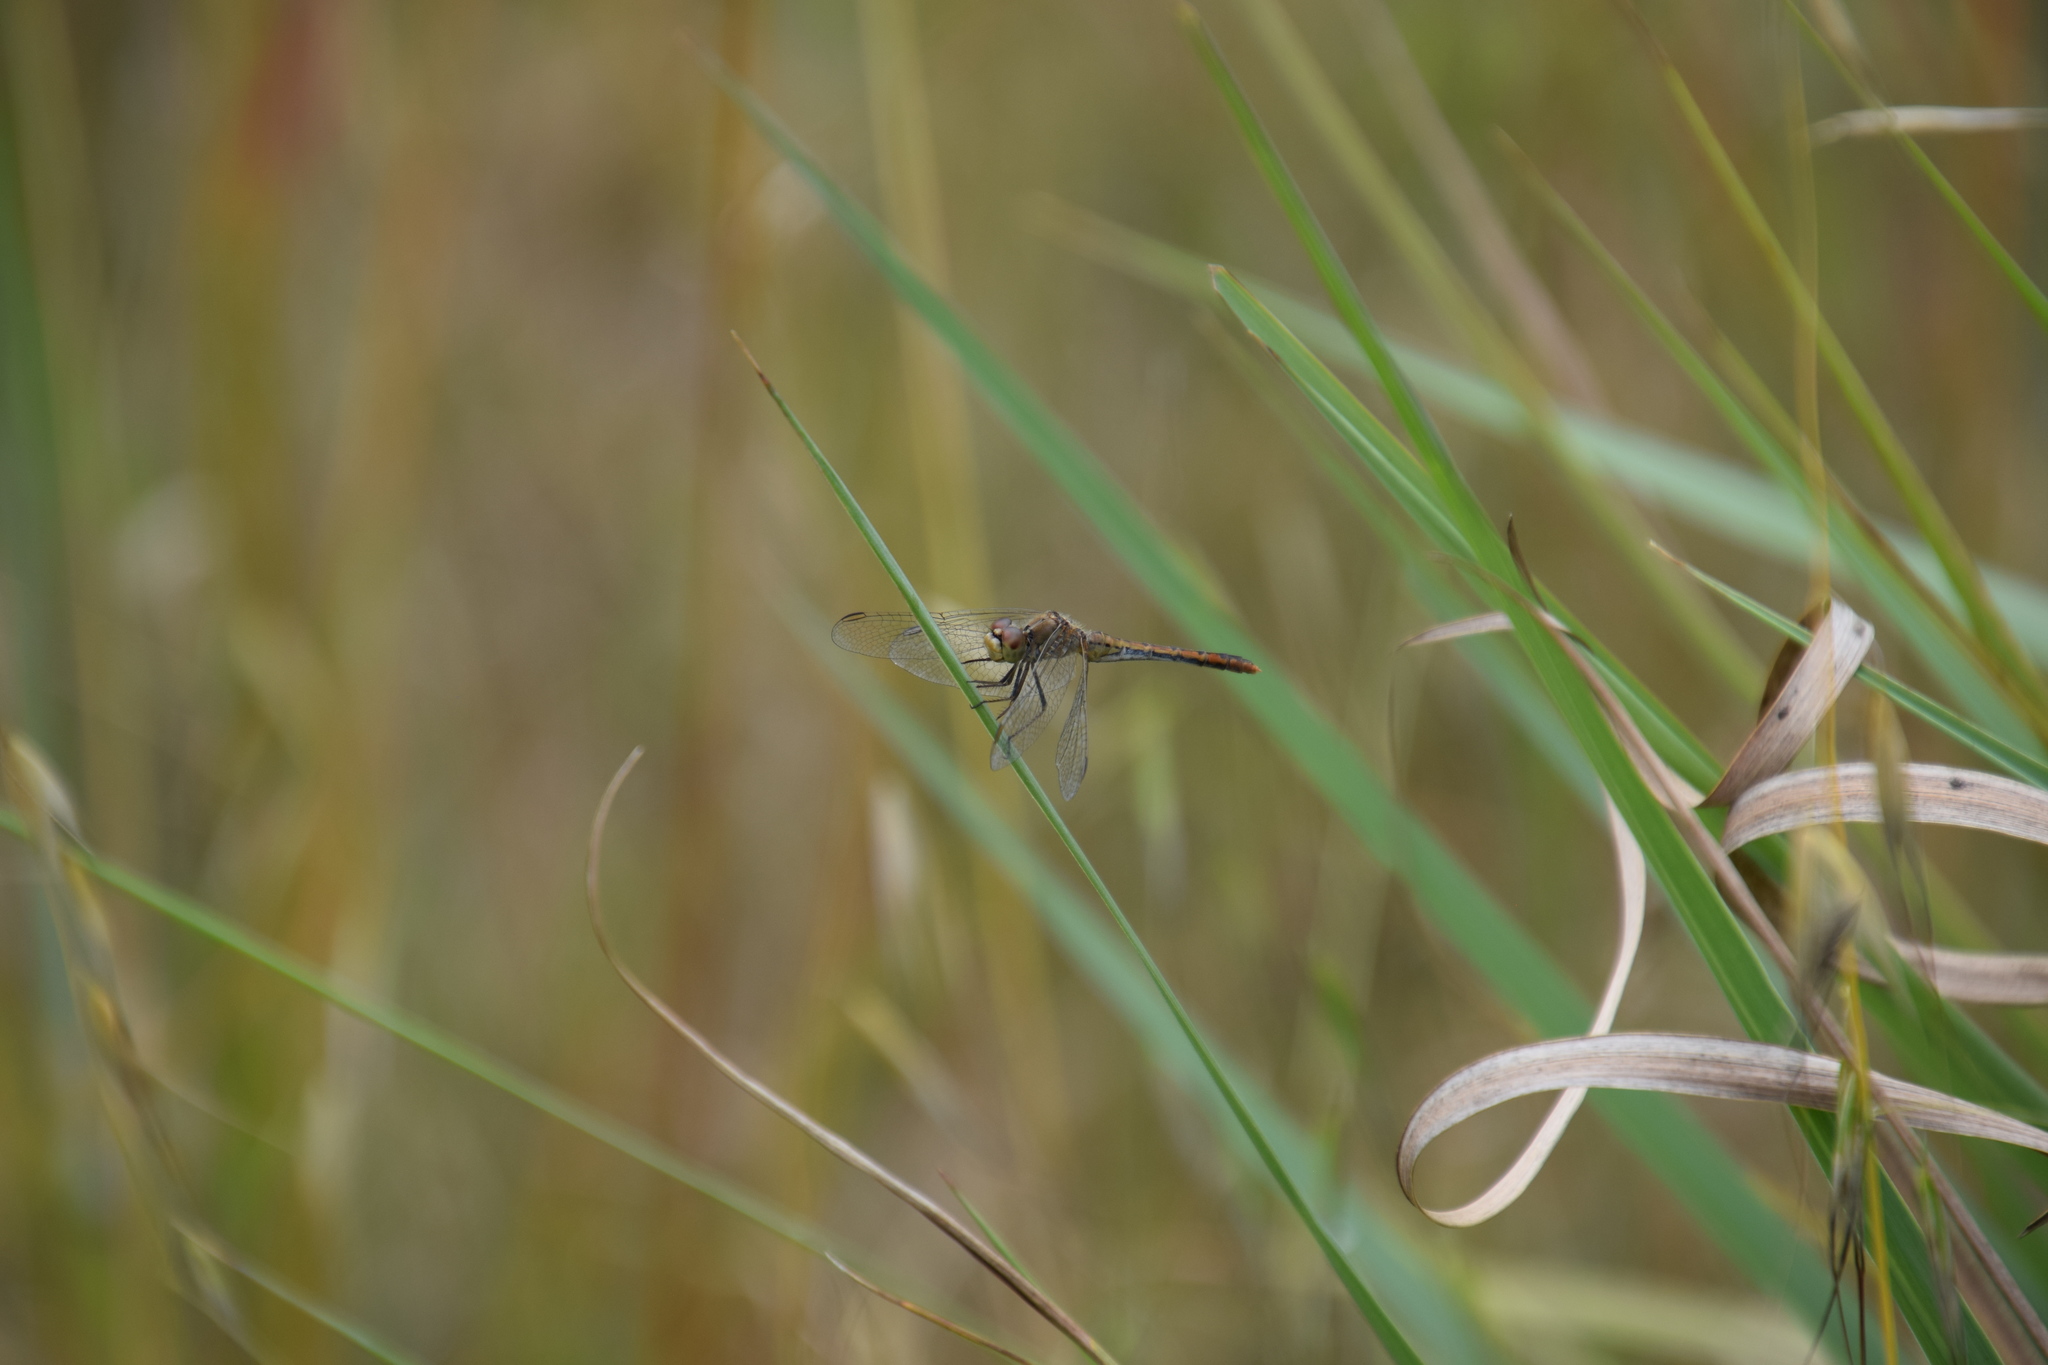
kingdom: Animalia
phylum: Arthropoda
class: Insecta
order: Odonata
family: Libellulidae
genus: Diplacodes
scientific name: Diplacodes bipunctata
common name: Red percher dragonfly
